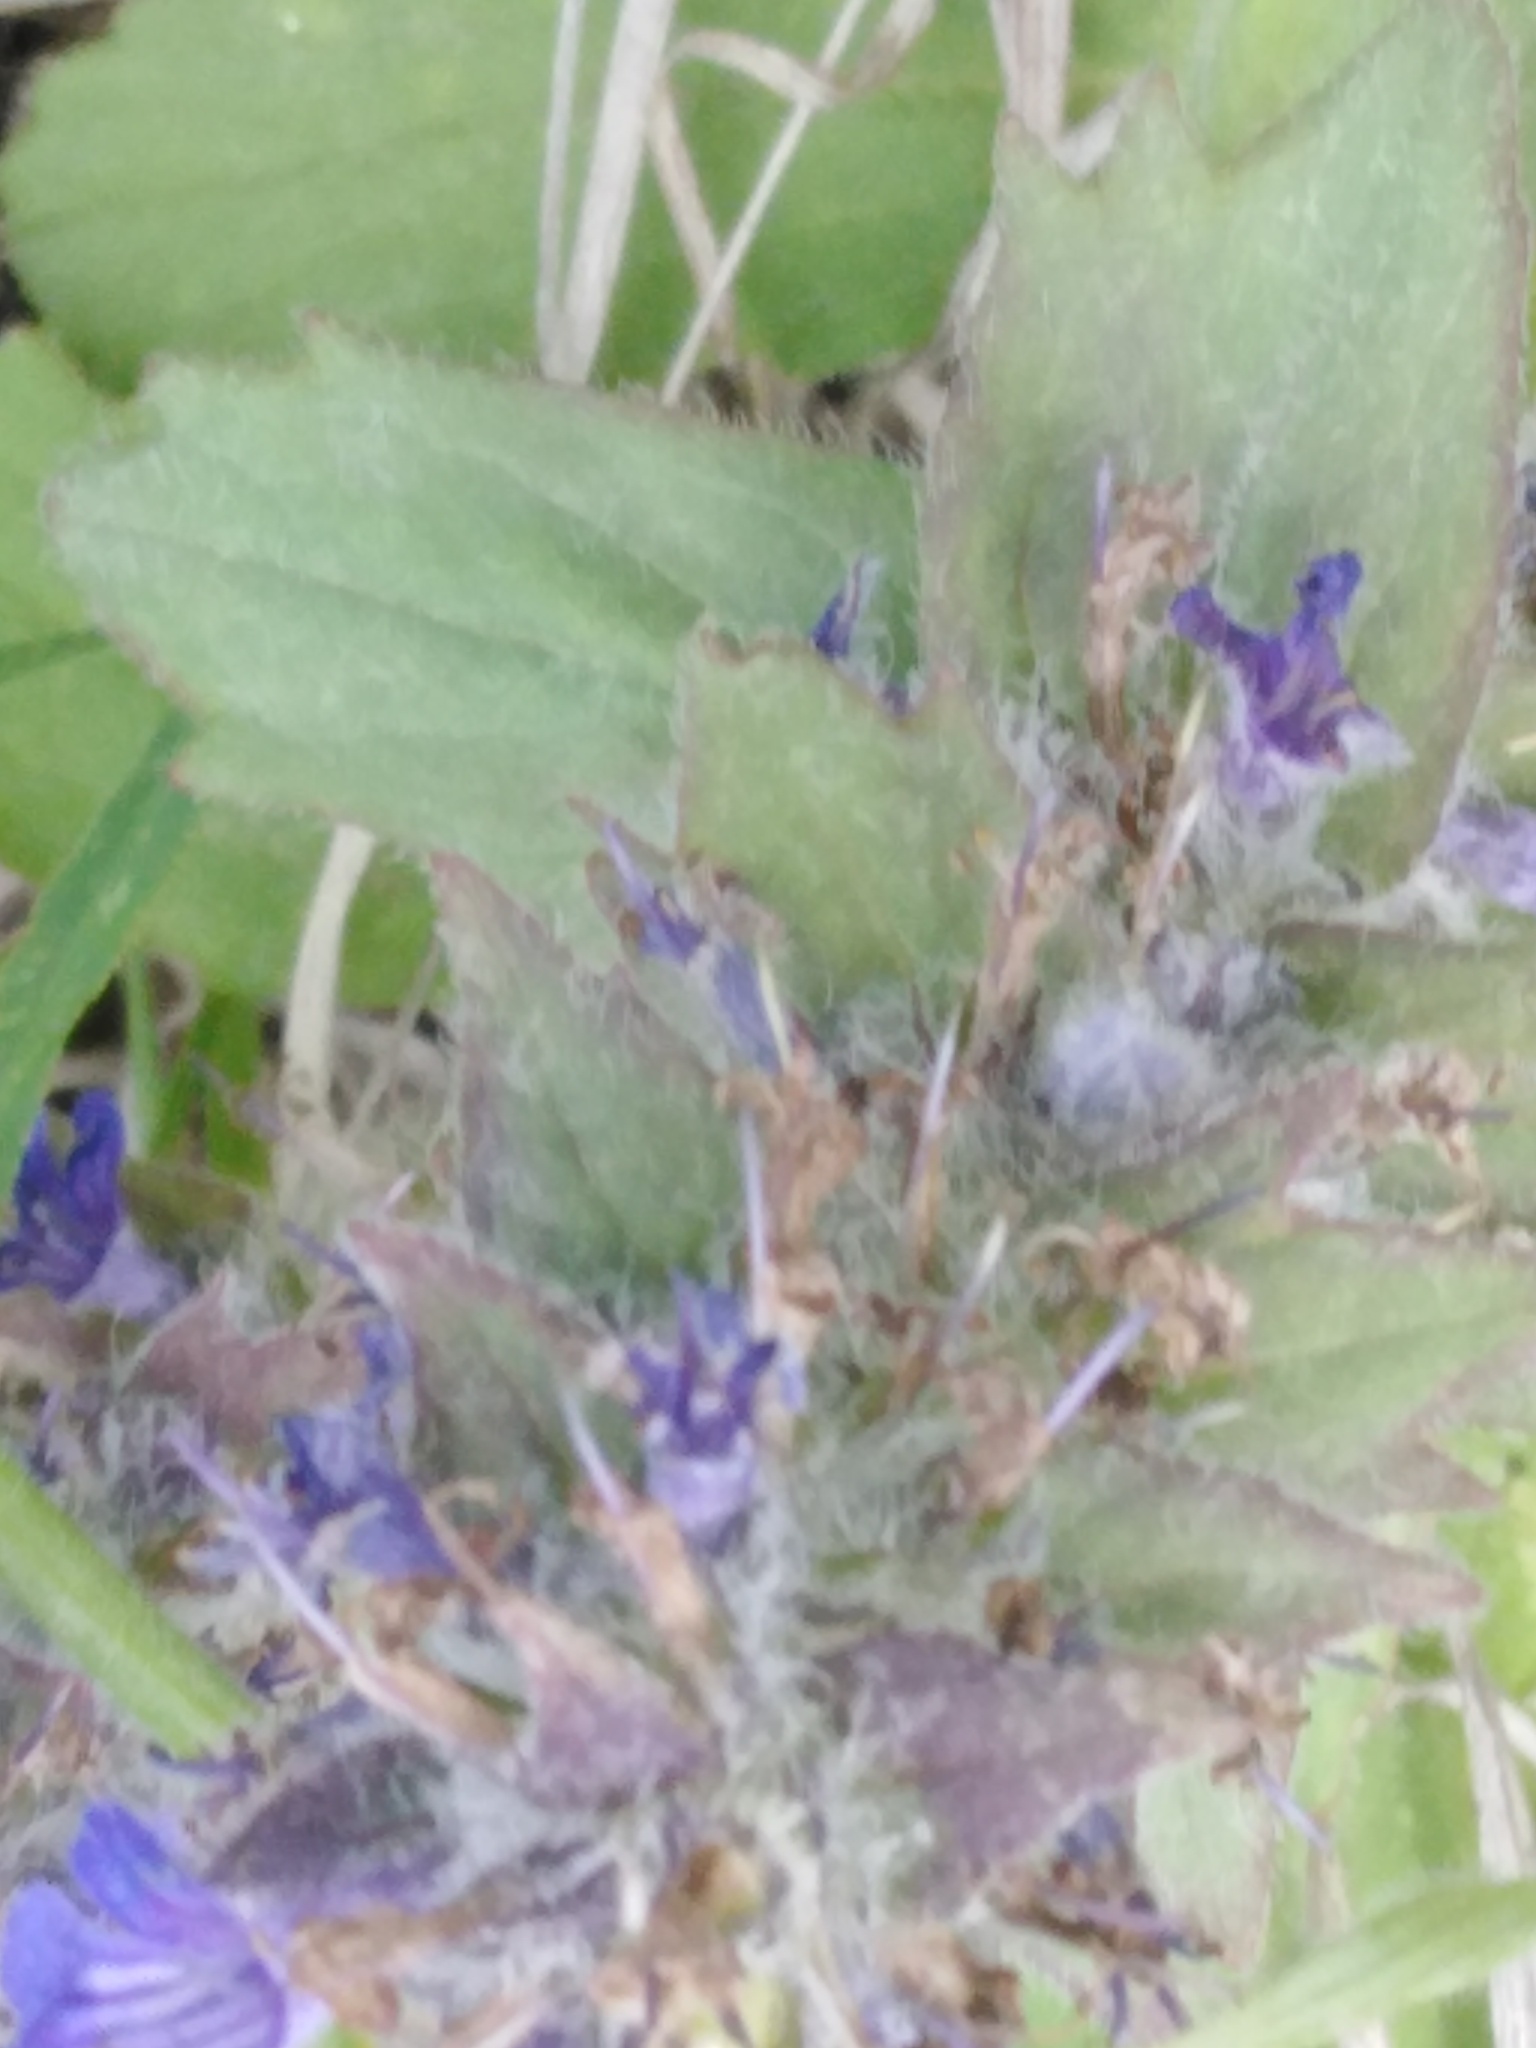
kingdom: Plantae
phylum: Tracheophyta
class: Magnoliopsida
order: Lamiales
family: Lamiaceae
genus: Ajuga
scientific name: Ajuga genevensis
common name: Blue bugle
